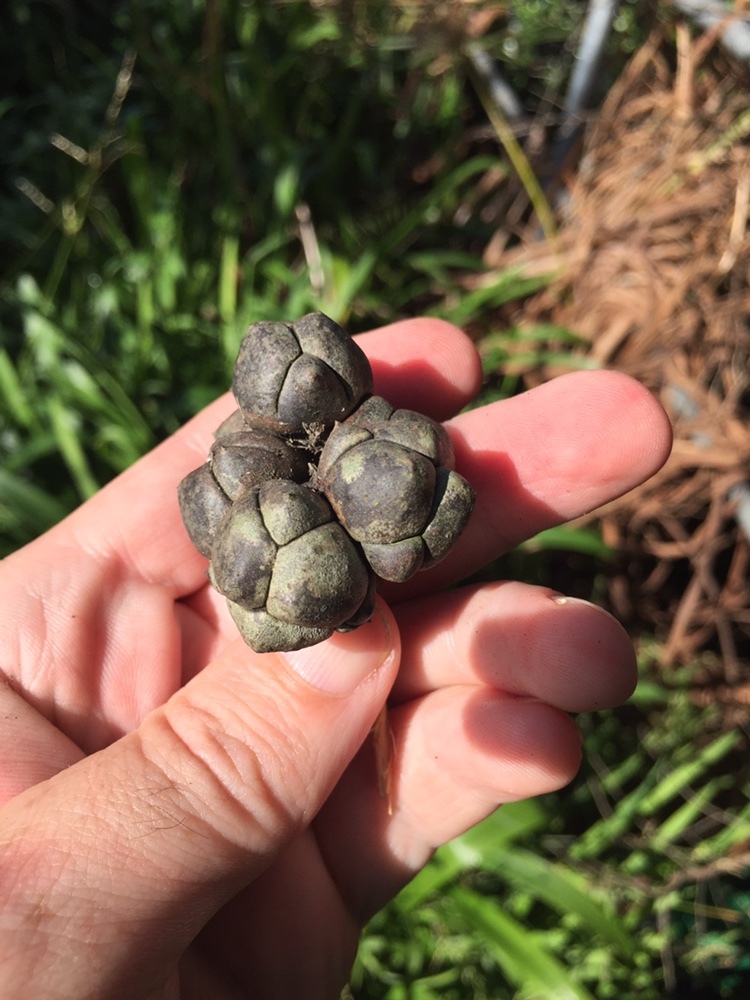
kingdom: Plantae
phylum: Tracheophyta
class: Pinopsida
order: Pinales
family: Cupressaceae
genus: Callitris
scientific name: Callitris rhomboidea
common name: Illawara mountain pine
